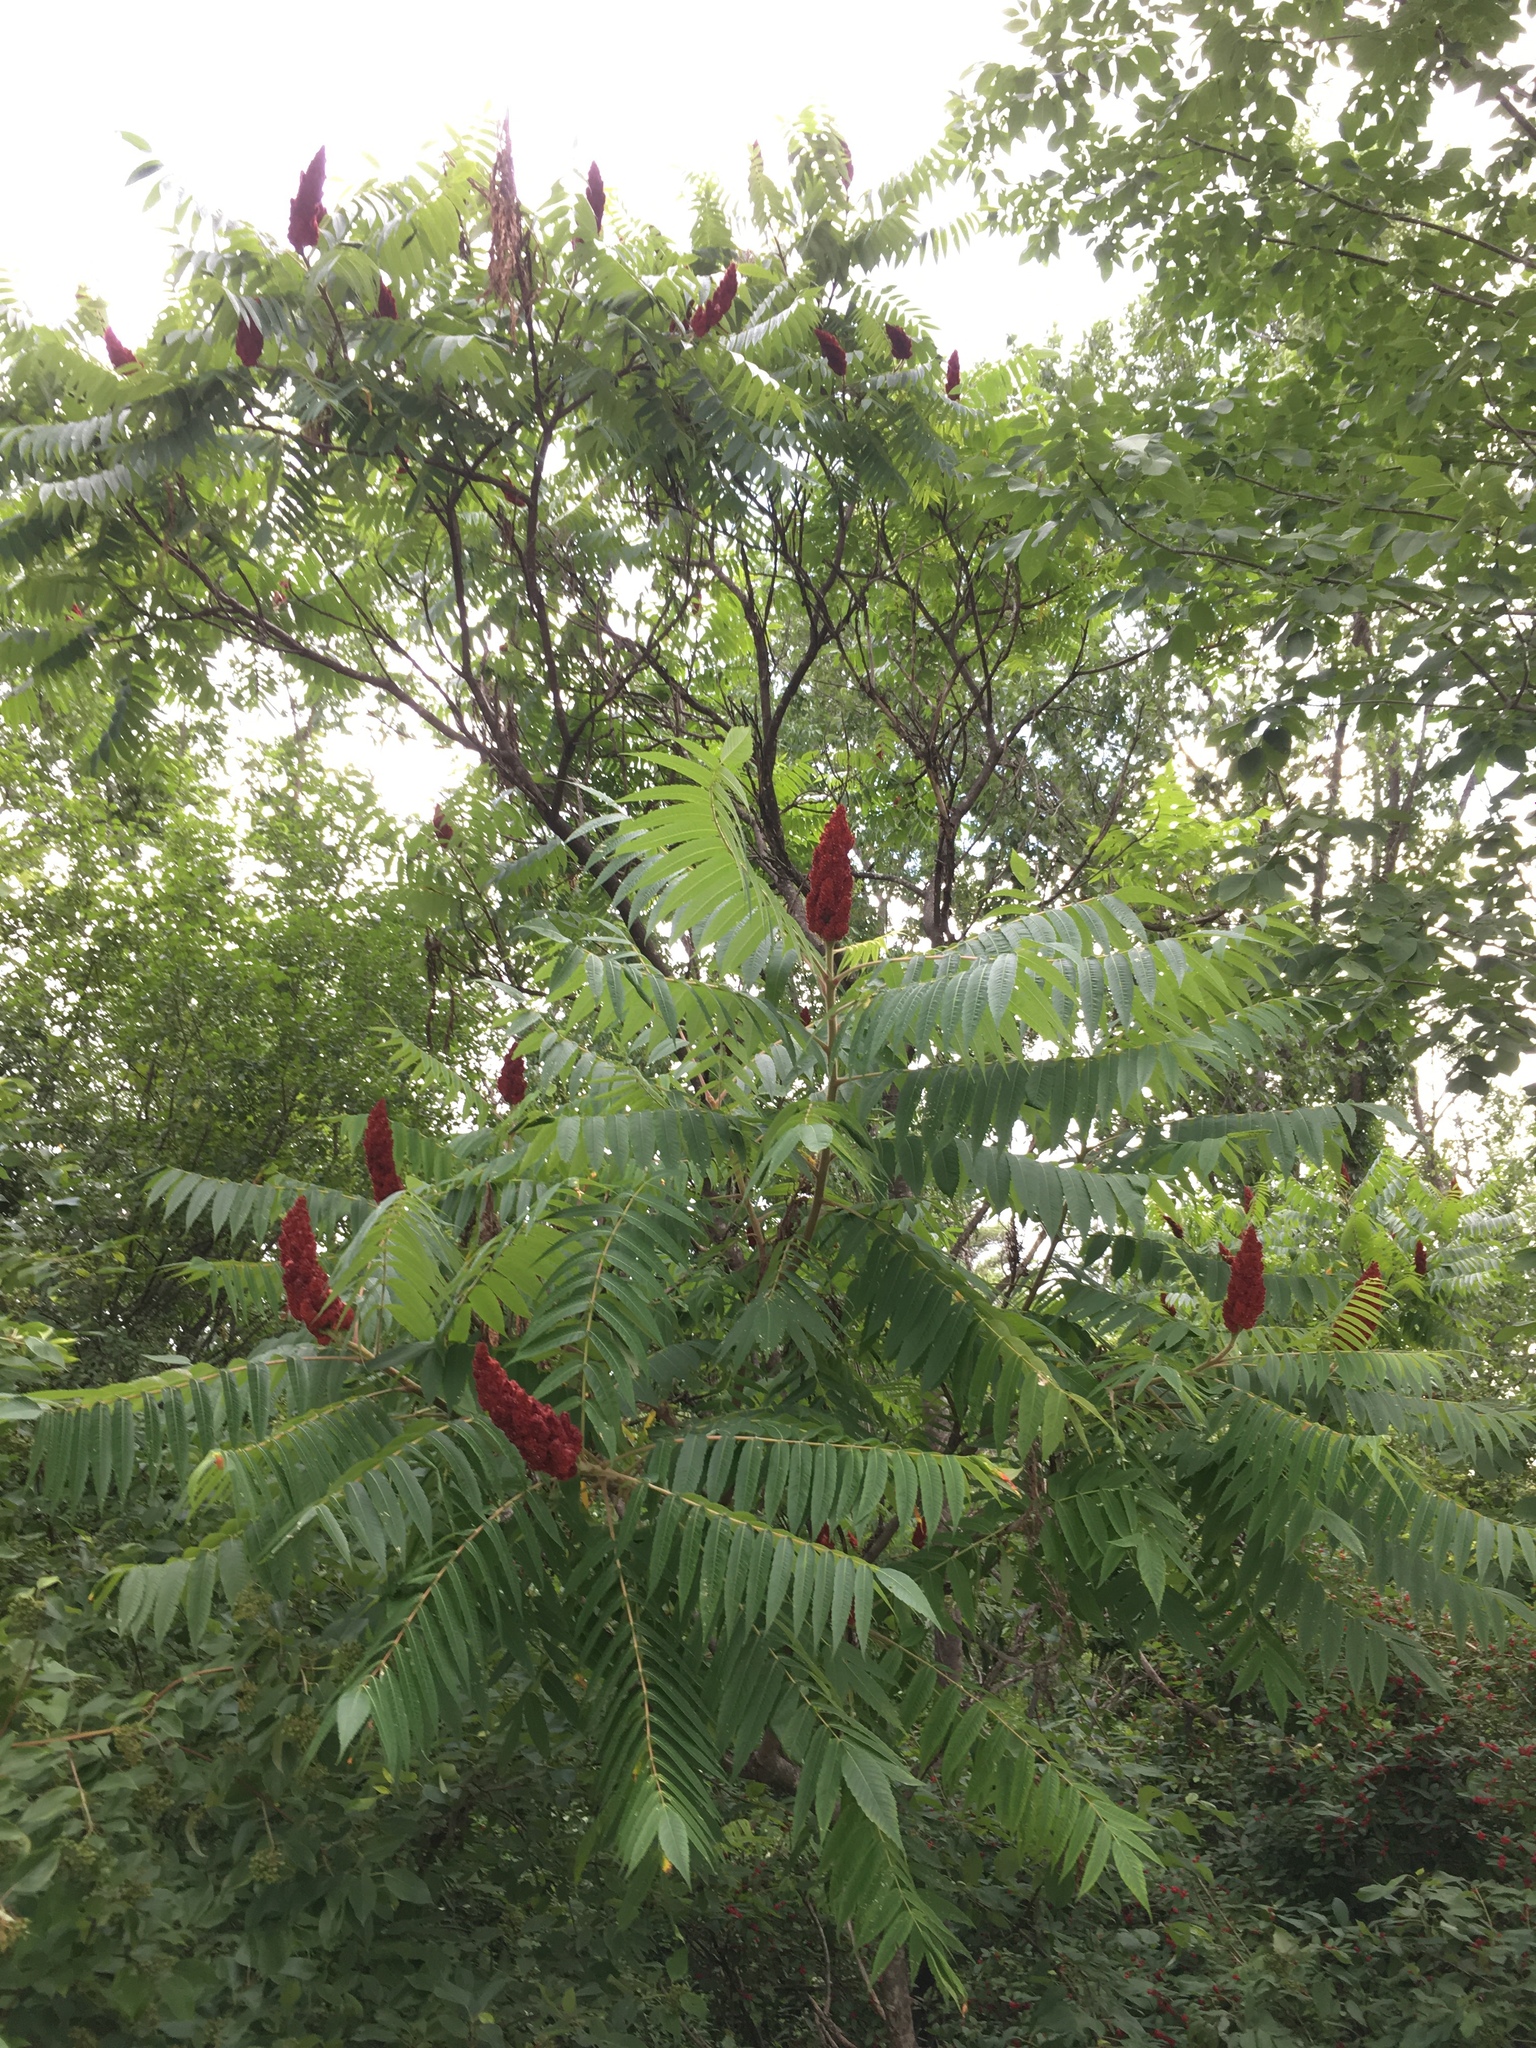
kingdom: Plantae
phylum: Tracheophyta
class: Magnoliopsida
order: Sapindales
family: Anacardiaceae
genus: Rhus
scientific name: Rhus typhina
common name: Staghorn sumac
